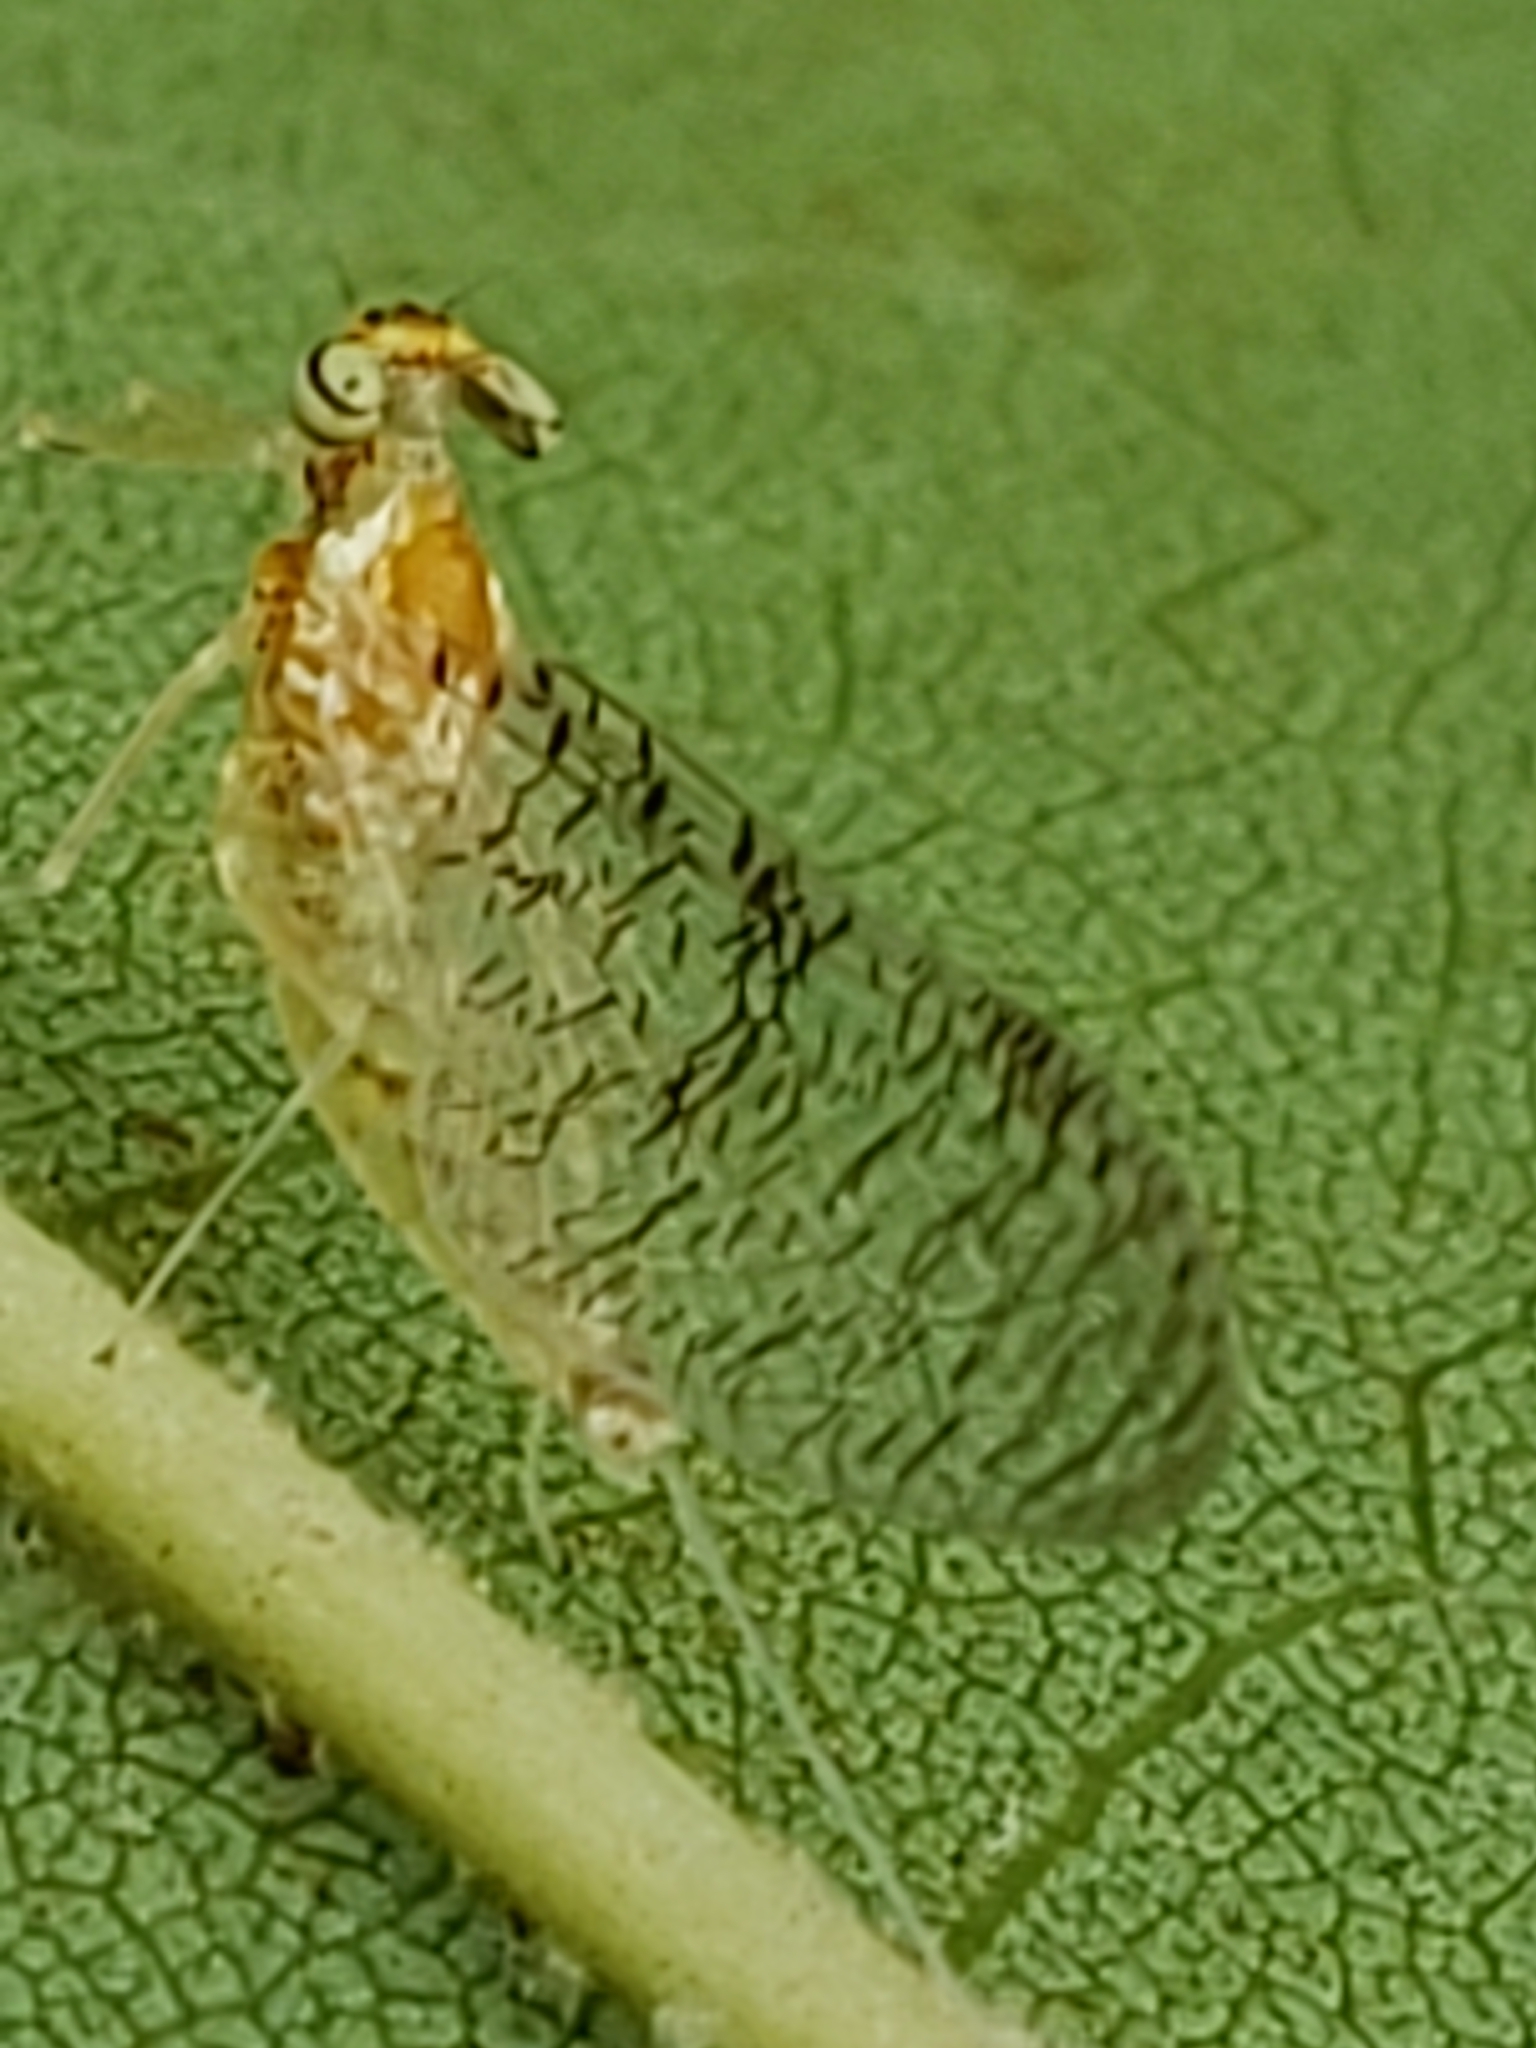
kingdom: Animalia
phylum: Arthropoda
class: Insecta
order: Ephemeroptera
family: Heptageniidae
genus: Leucrocuta
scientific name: Leucrocuta hebe
